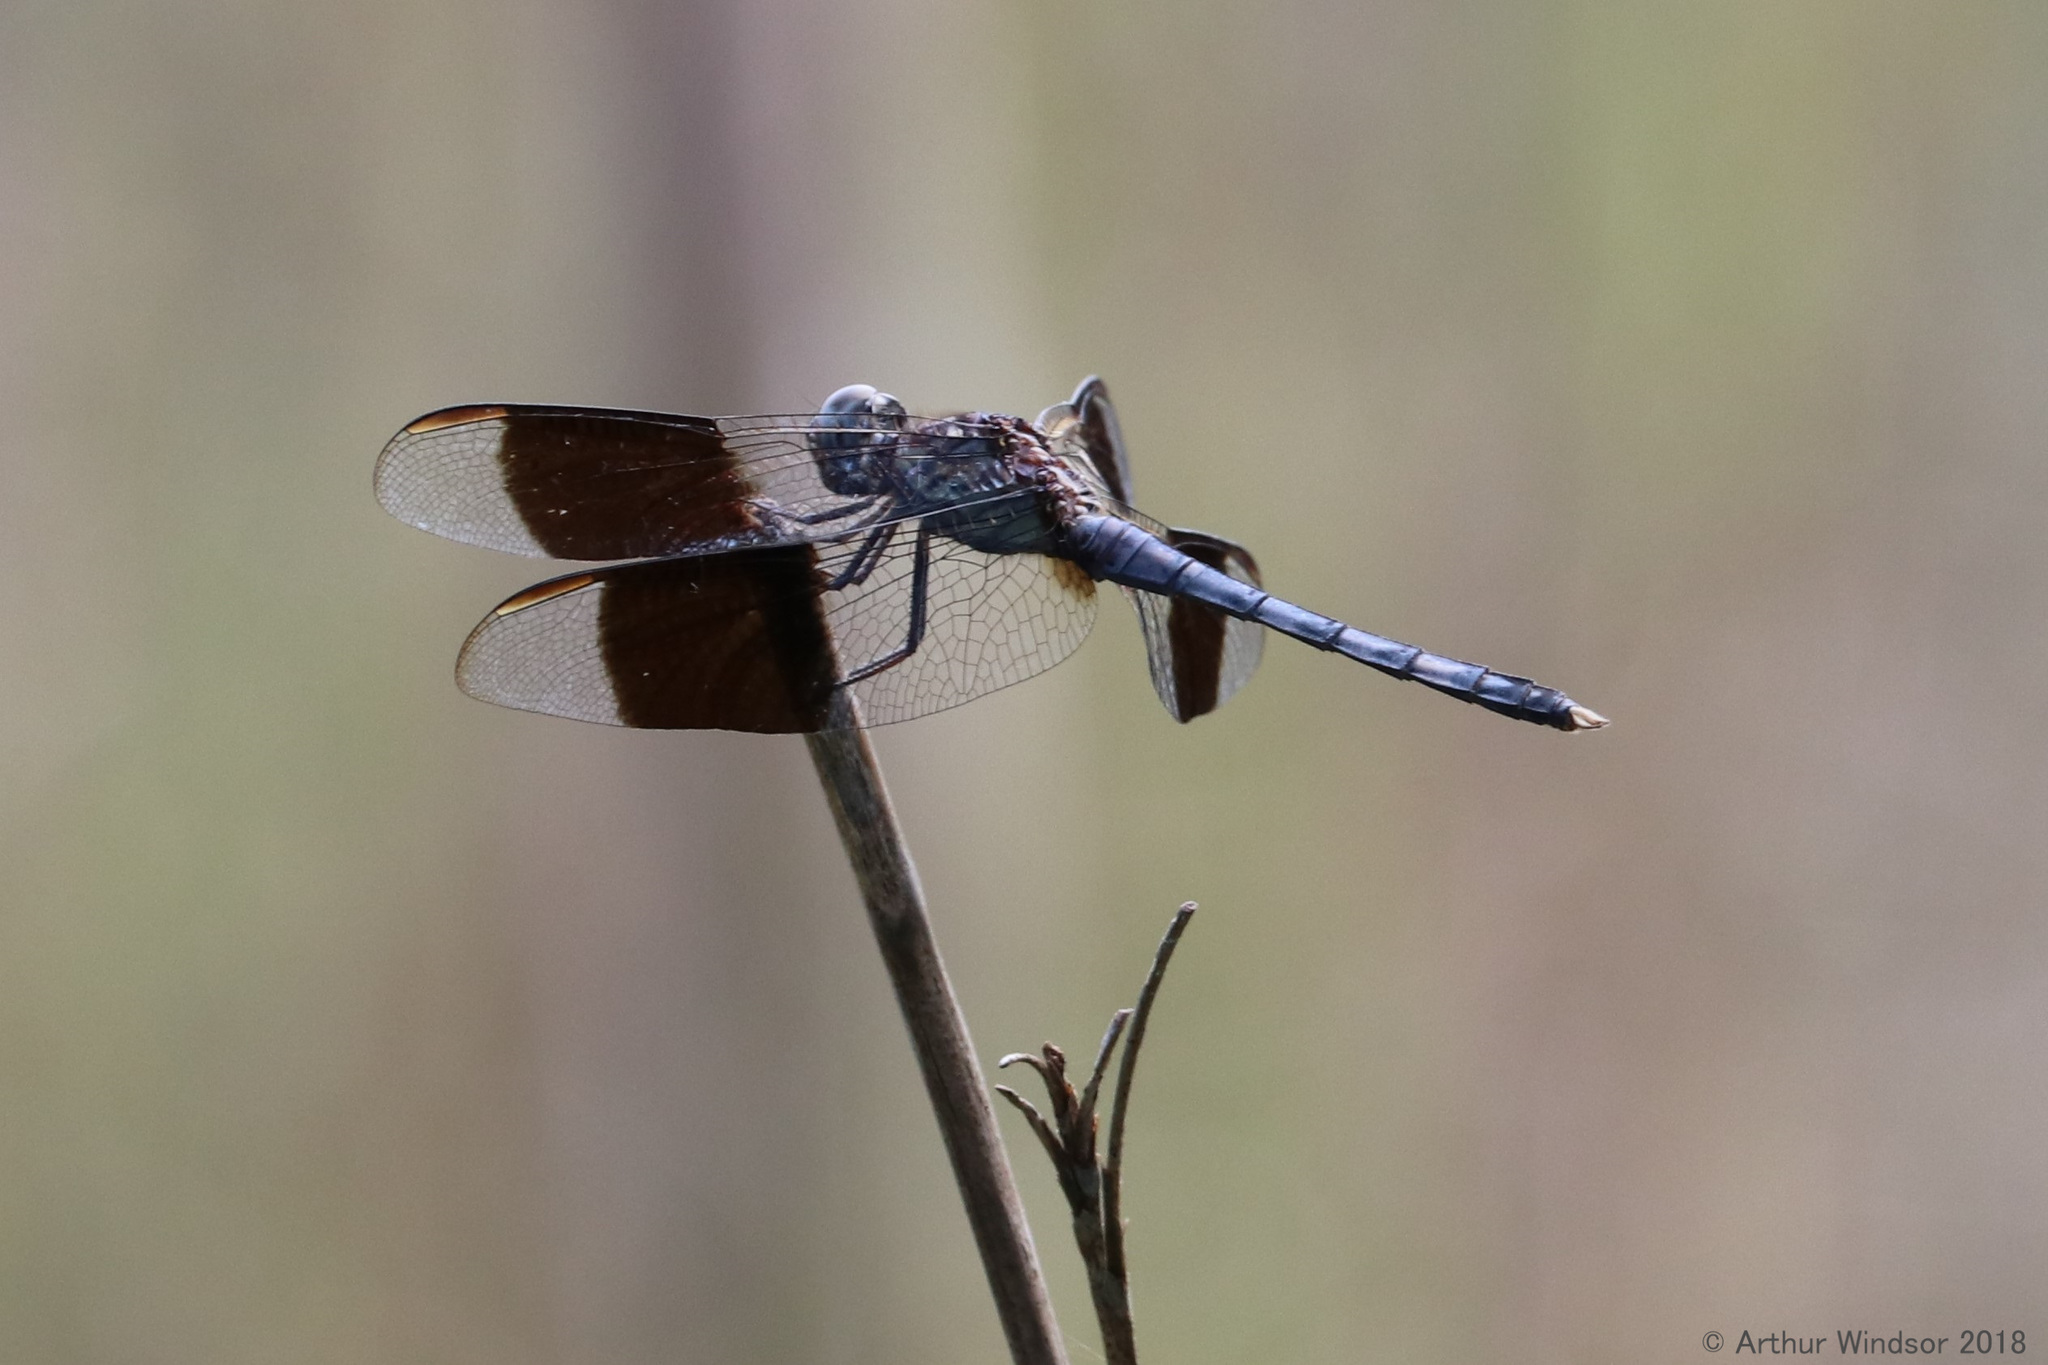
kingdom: Animalia
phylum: Arthropoda
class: Insecta
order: Odonata
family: Libellulidae
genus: Erythrodiplax
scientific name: Erythrodiplax umbrata
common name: Band-winged dragonlet
